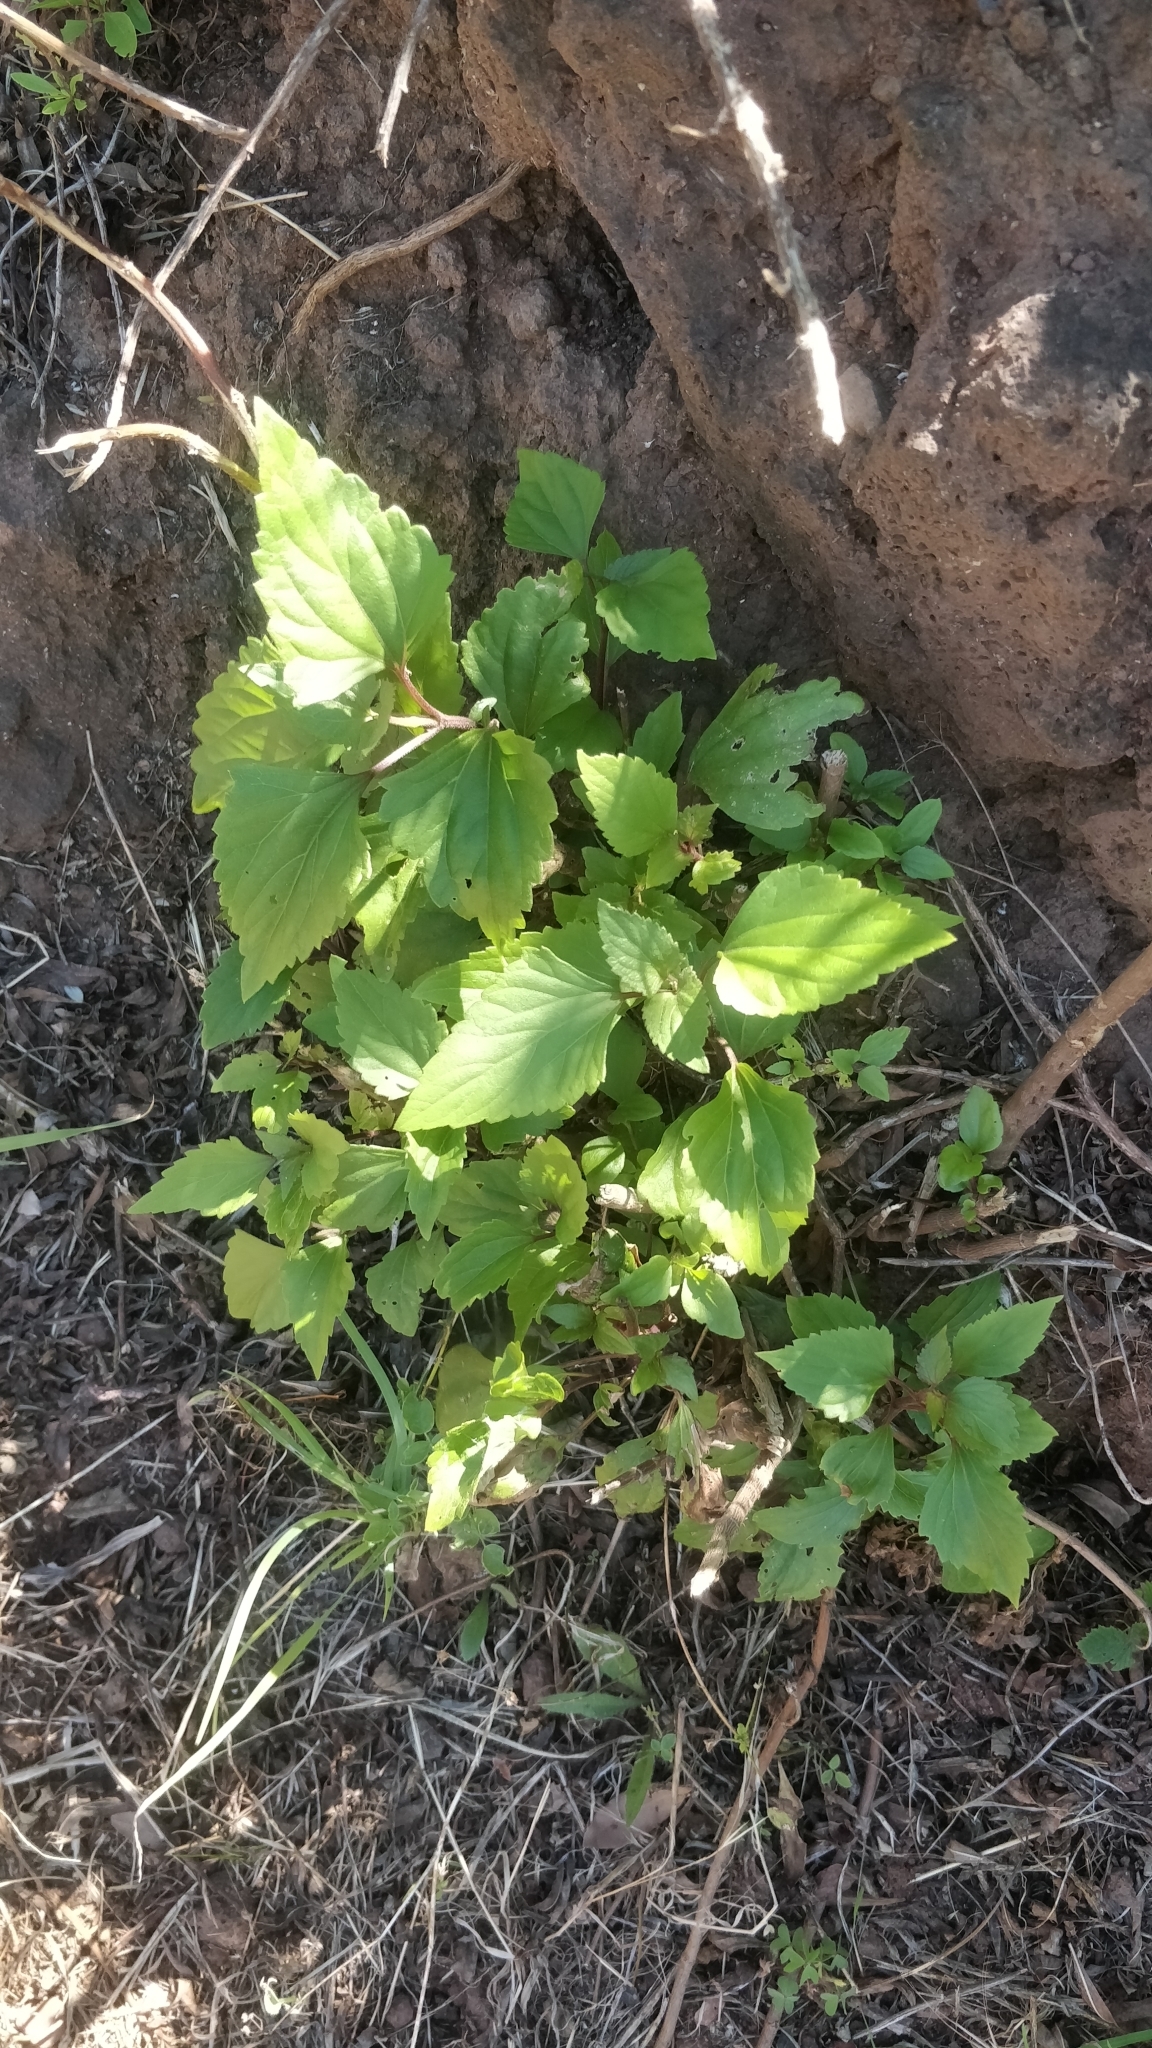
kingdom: Plantae
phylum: Tracheophyta
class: Magnoliopsida
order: Asterales
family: Asteraceae
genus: Ageratina
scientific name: Ageratina adenophora
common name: Sticky snakeroot
